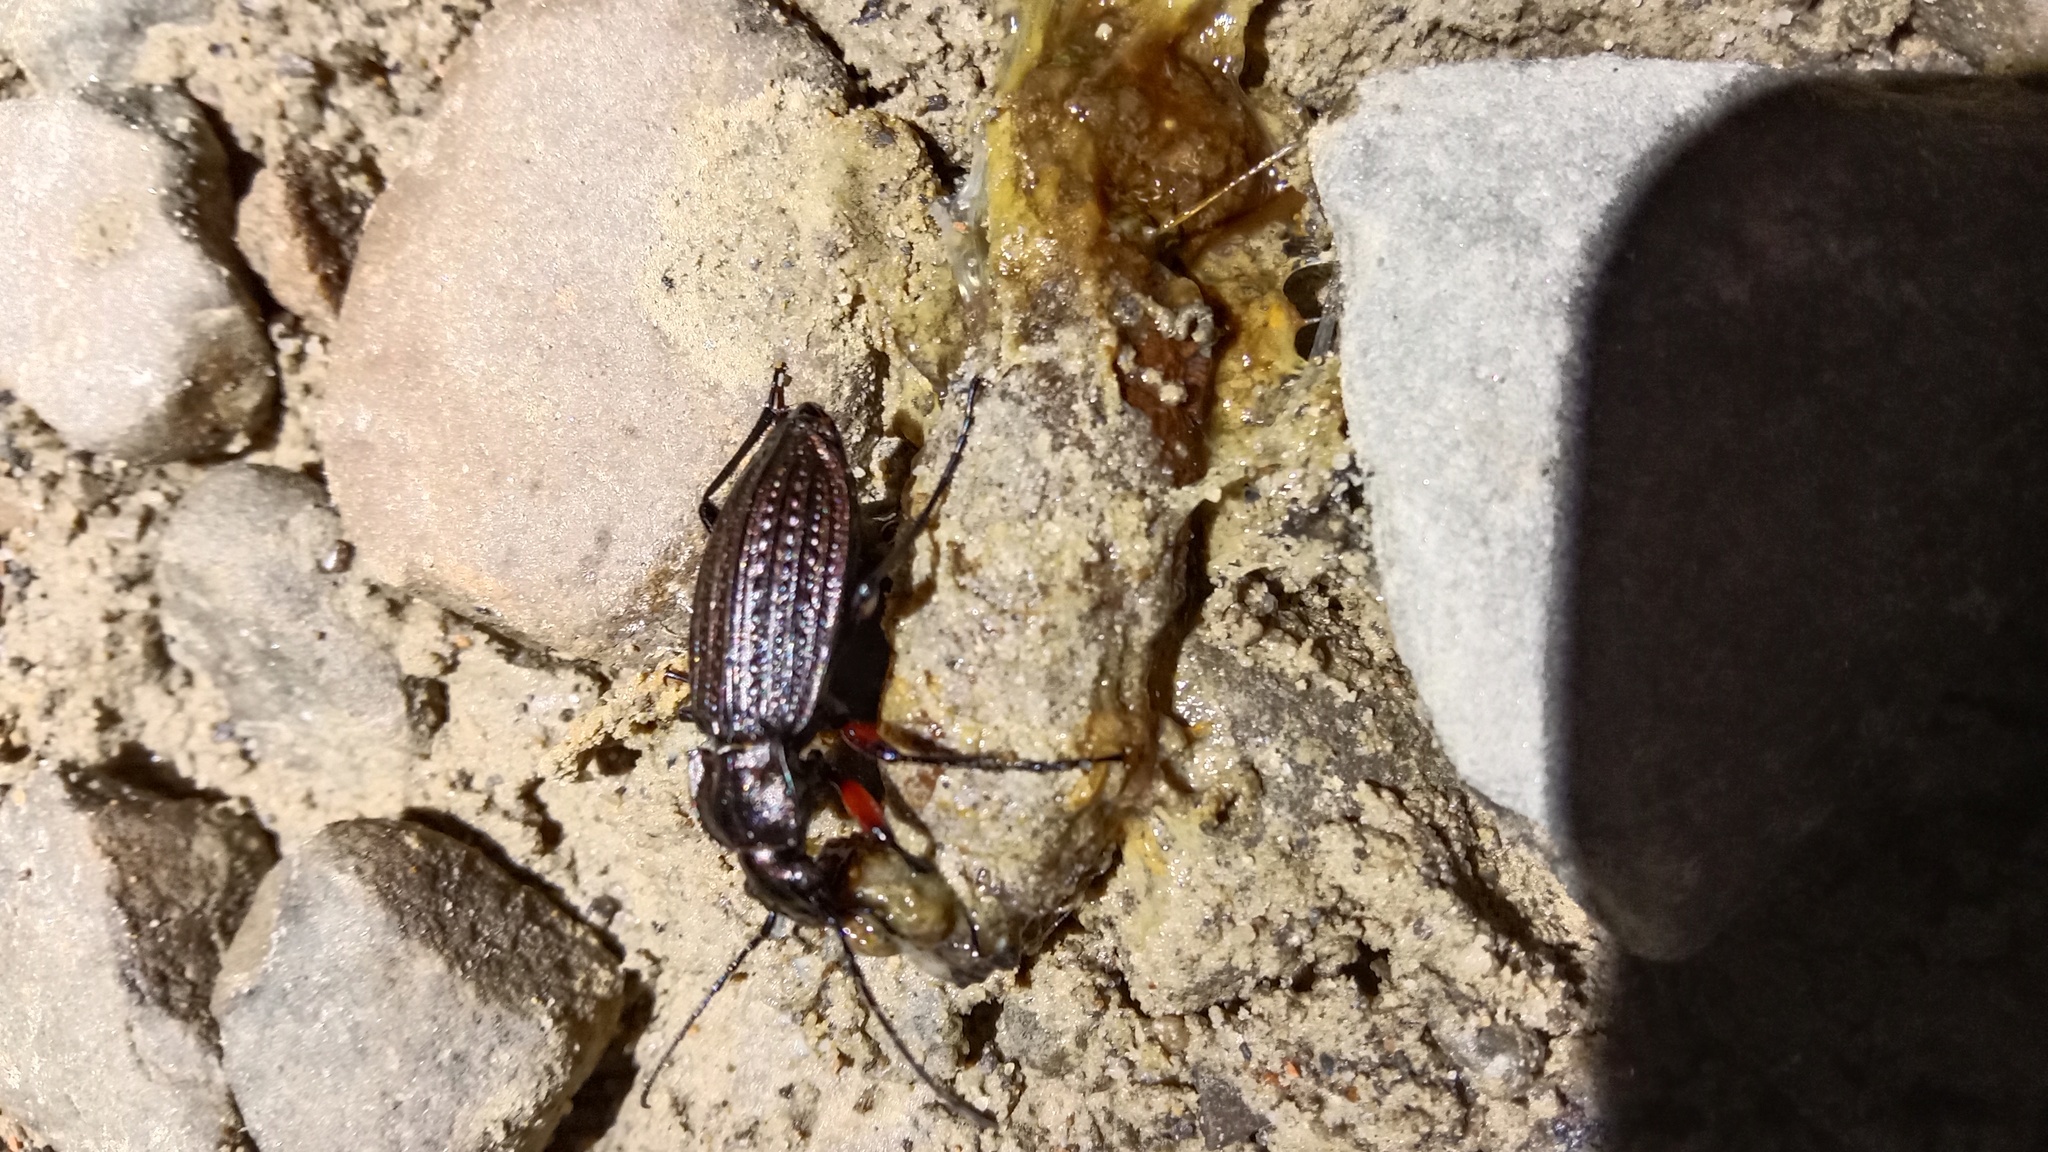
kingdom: Animalia
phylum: Arthropoda
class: Insecta
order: Coleoptera
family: Carabidae
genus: Carabus
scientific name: Carabus granulatus
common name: Granulate ground beetle
